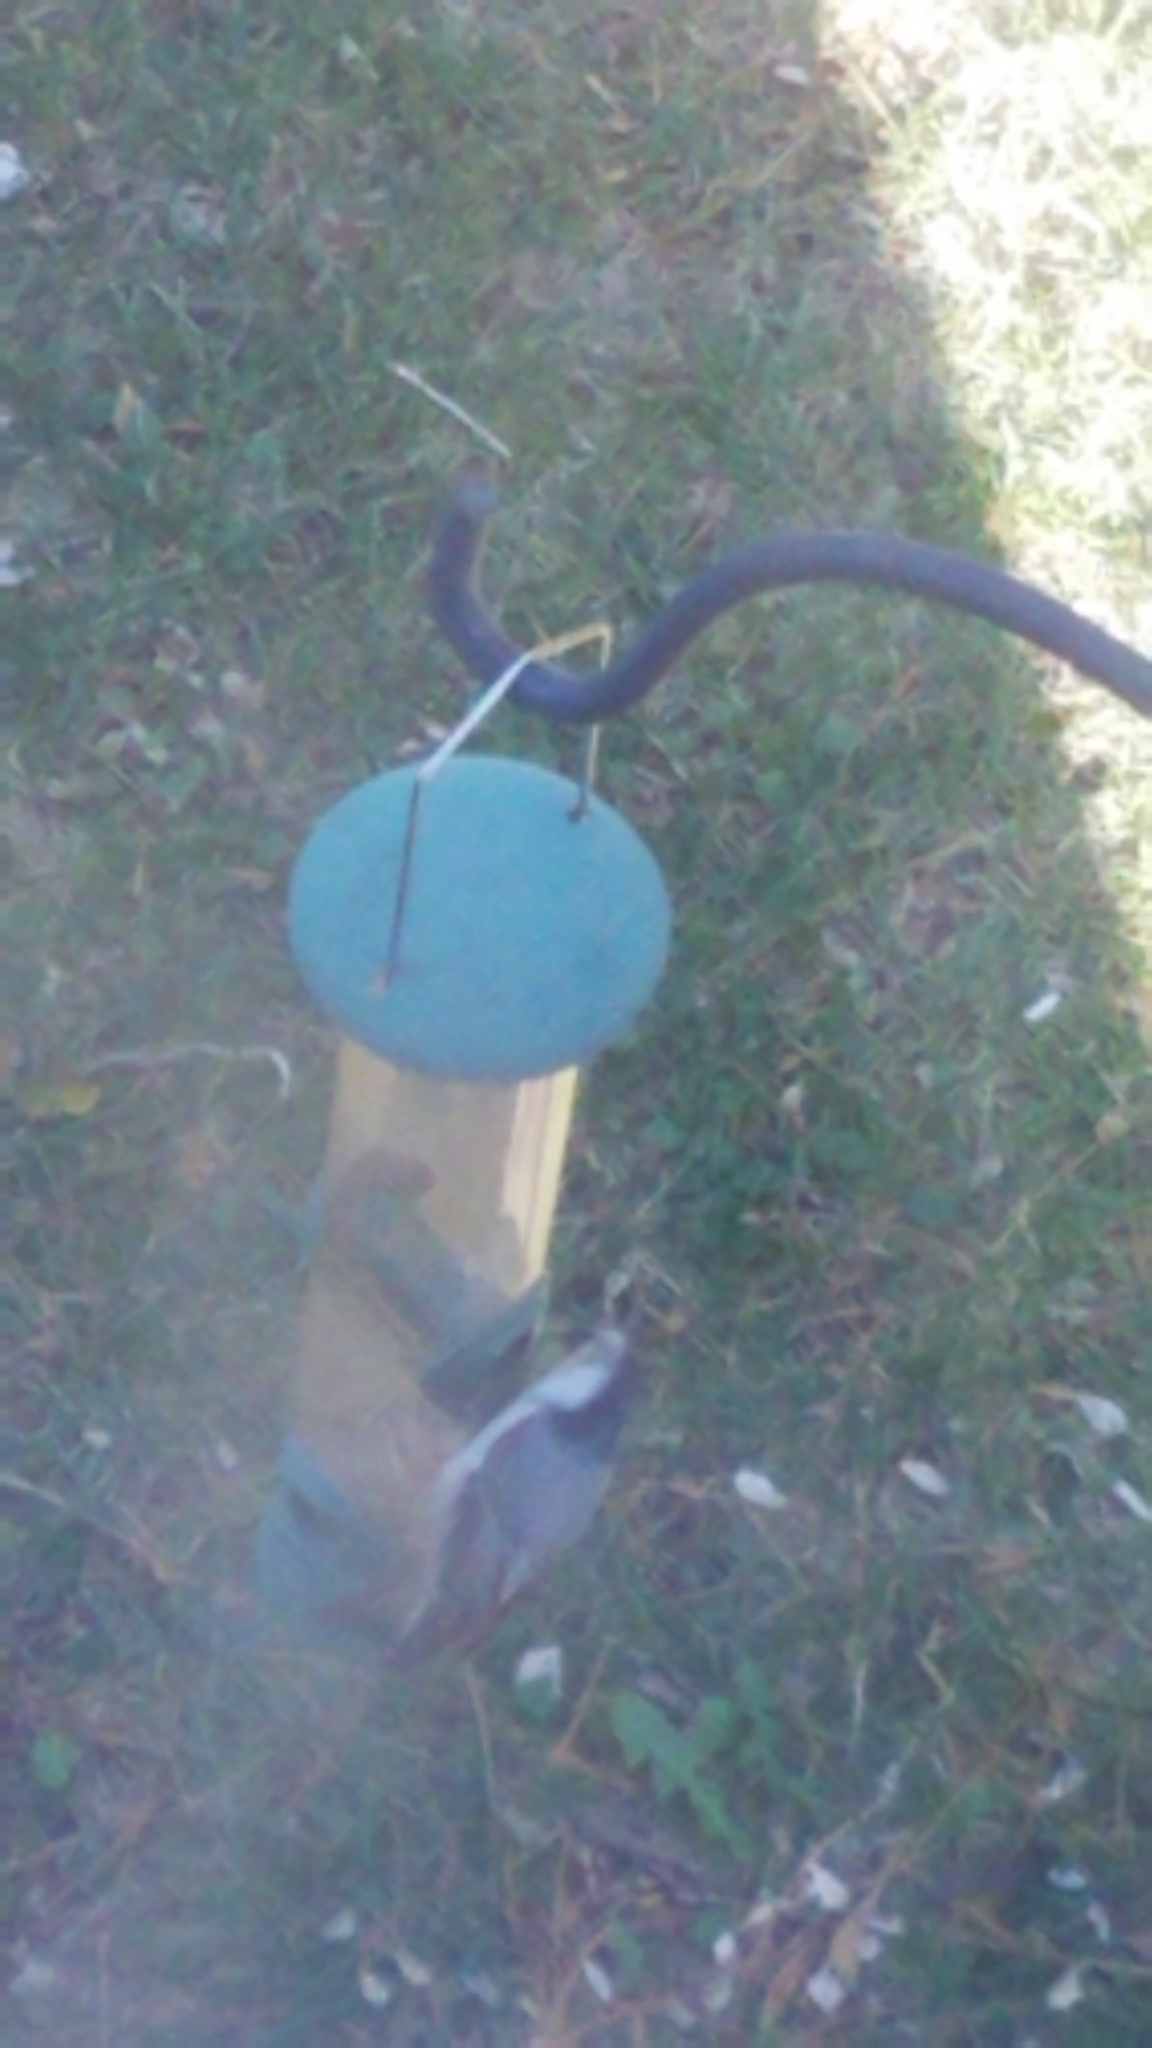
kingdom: Animalia
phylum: Chordata
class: Aves
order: Passeriformes
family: Sittidae
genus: Sitta
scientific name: Sitta carolinensis
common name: White-breasted nuthatch
